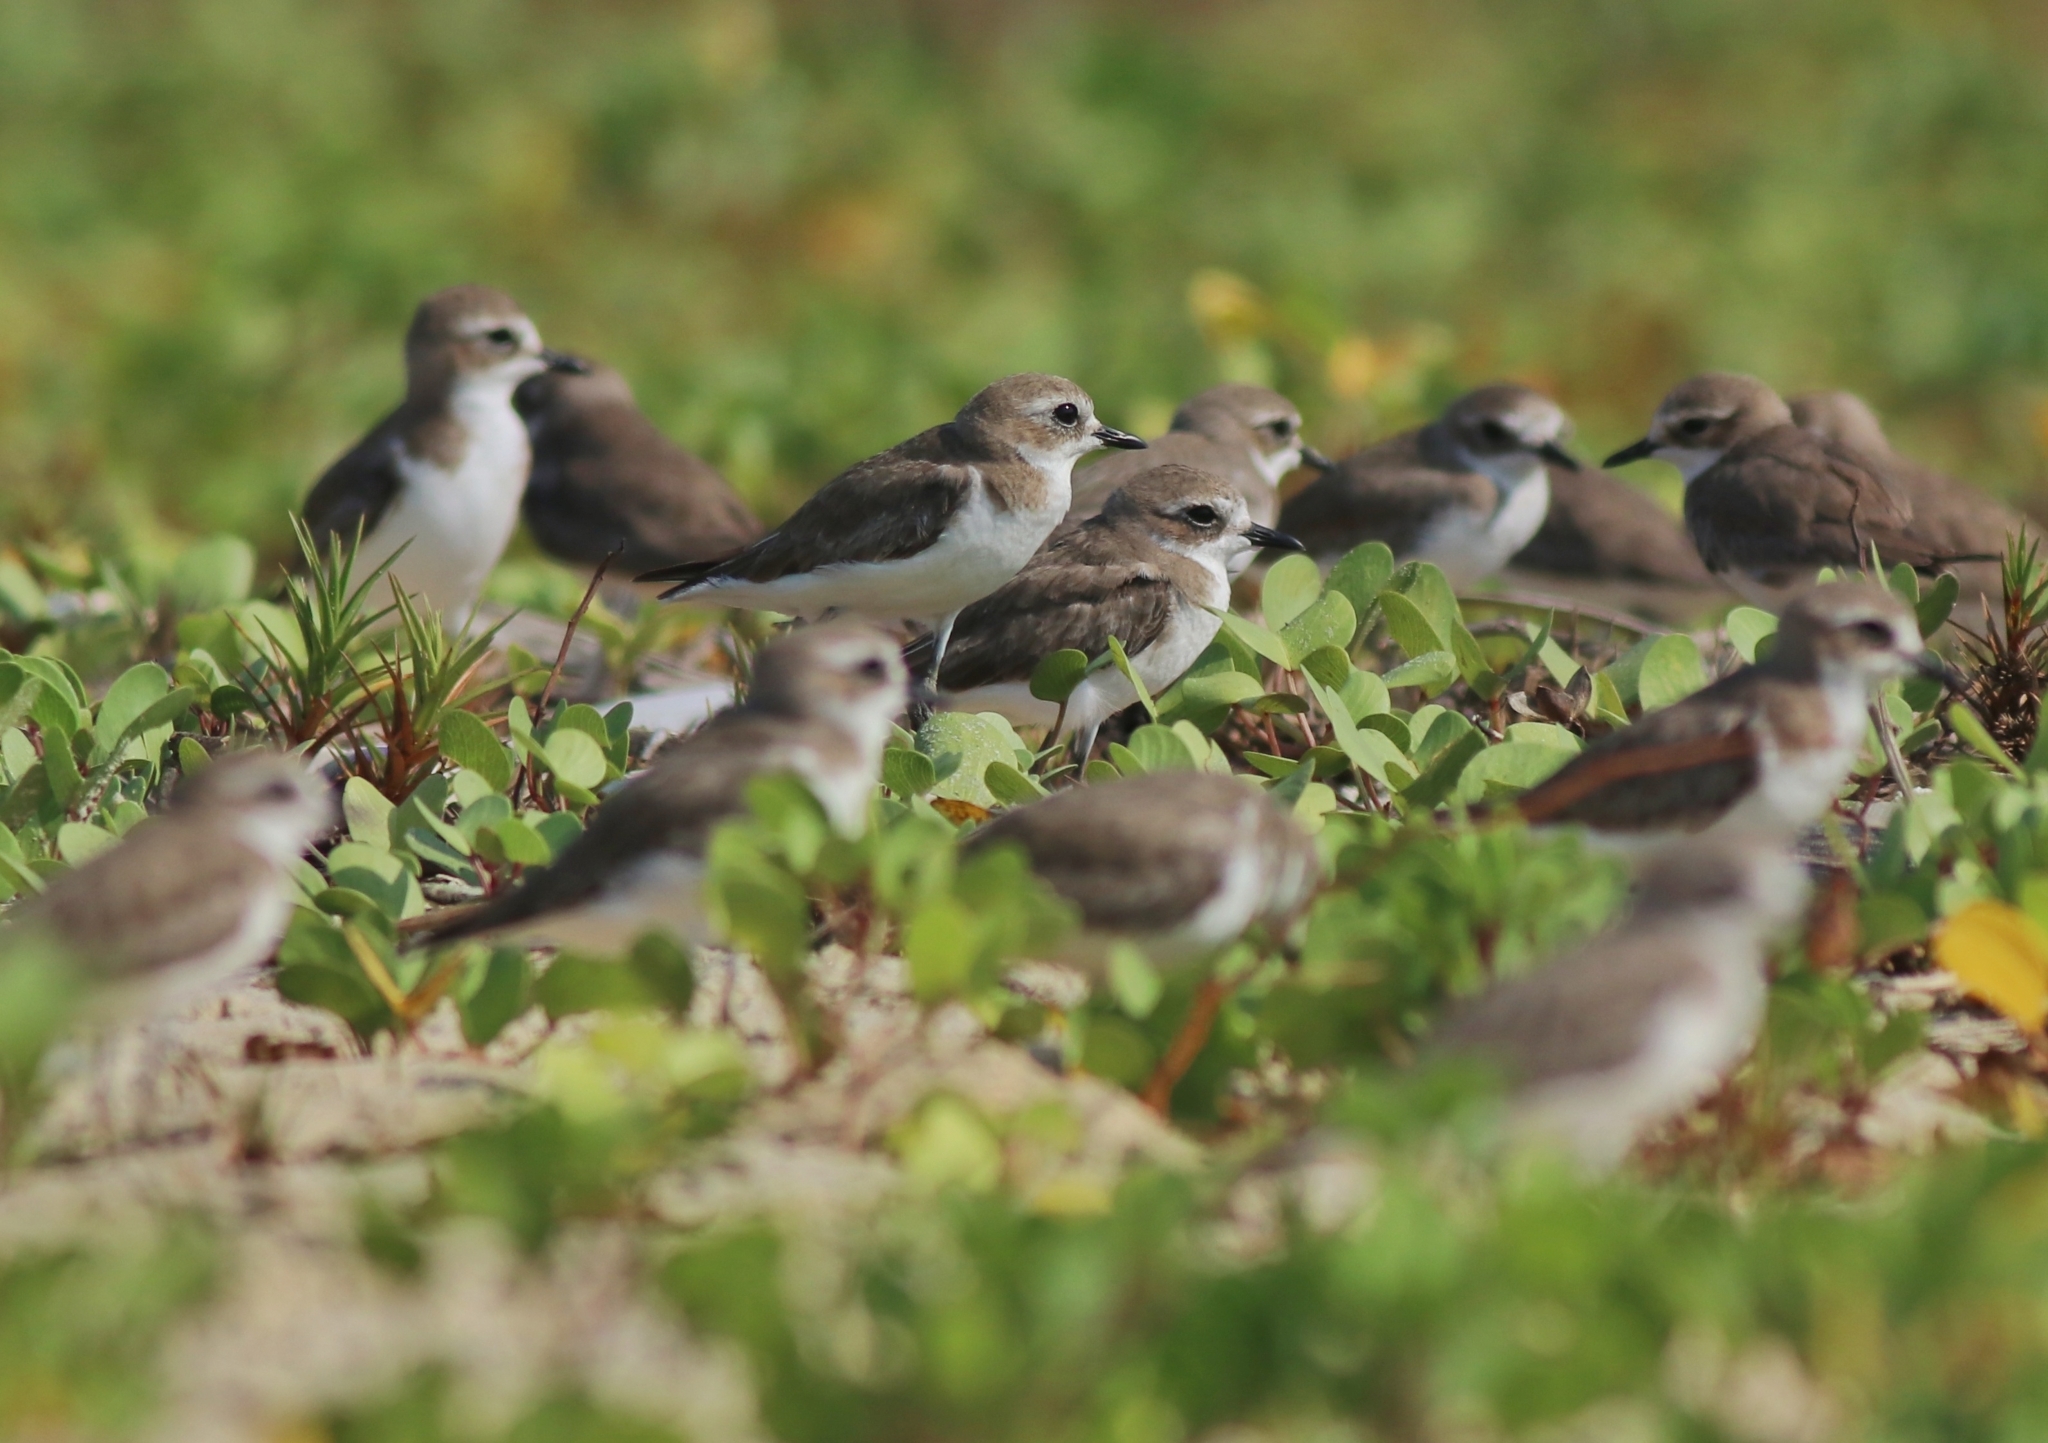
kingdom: Animalia
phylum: Chordata
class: Aves
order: Charadriiformes
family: Charadriidae
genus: Anarhynchus
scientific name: Anarhynchus
